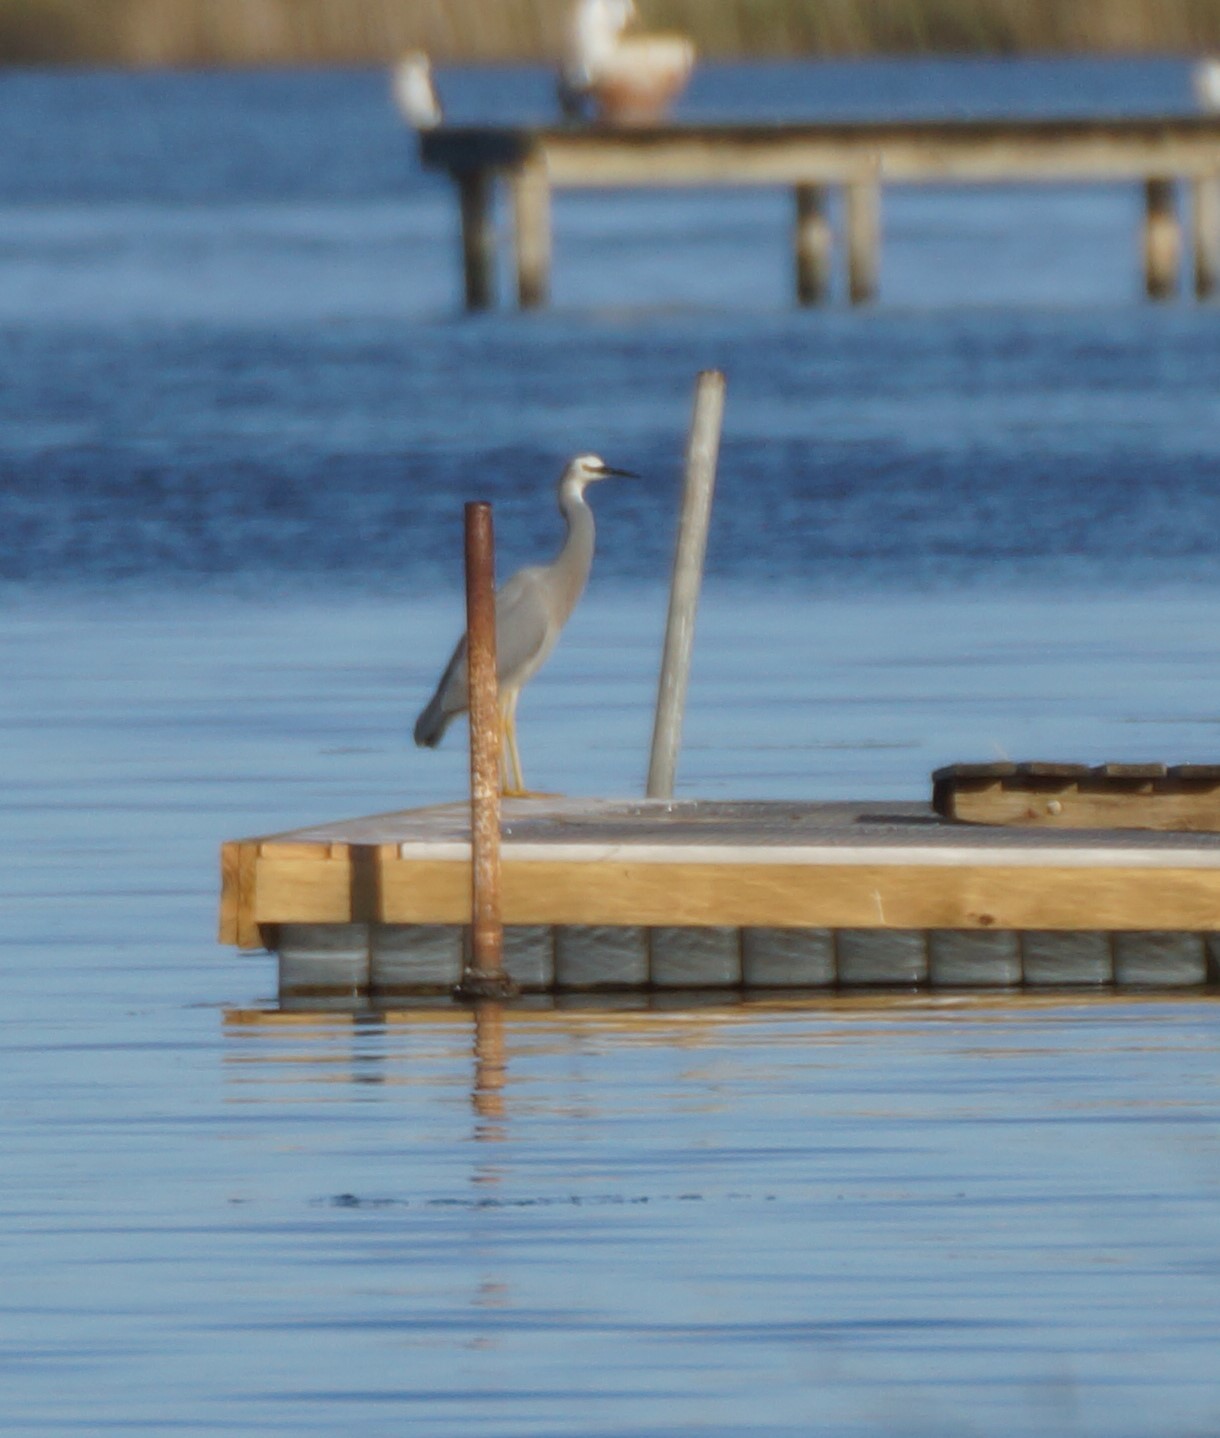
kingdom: Animalia
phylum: Chordata
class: Aves
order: Pelecaniformes
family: Ardeidae
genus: Egretta
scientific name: Egretta novaehollandiae
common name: White-faced heron
